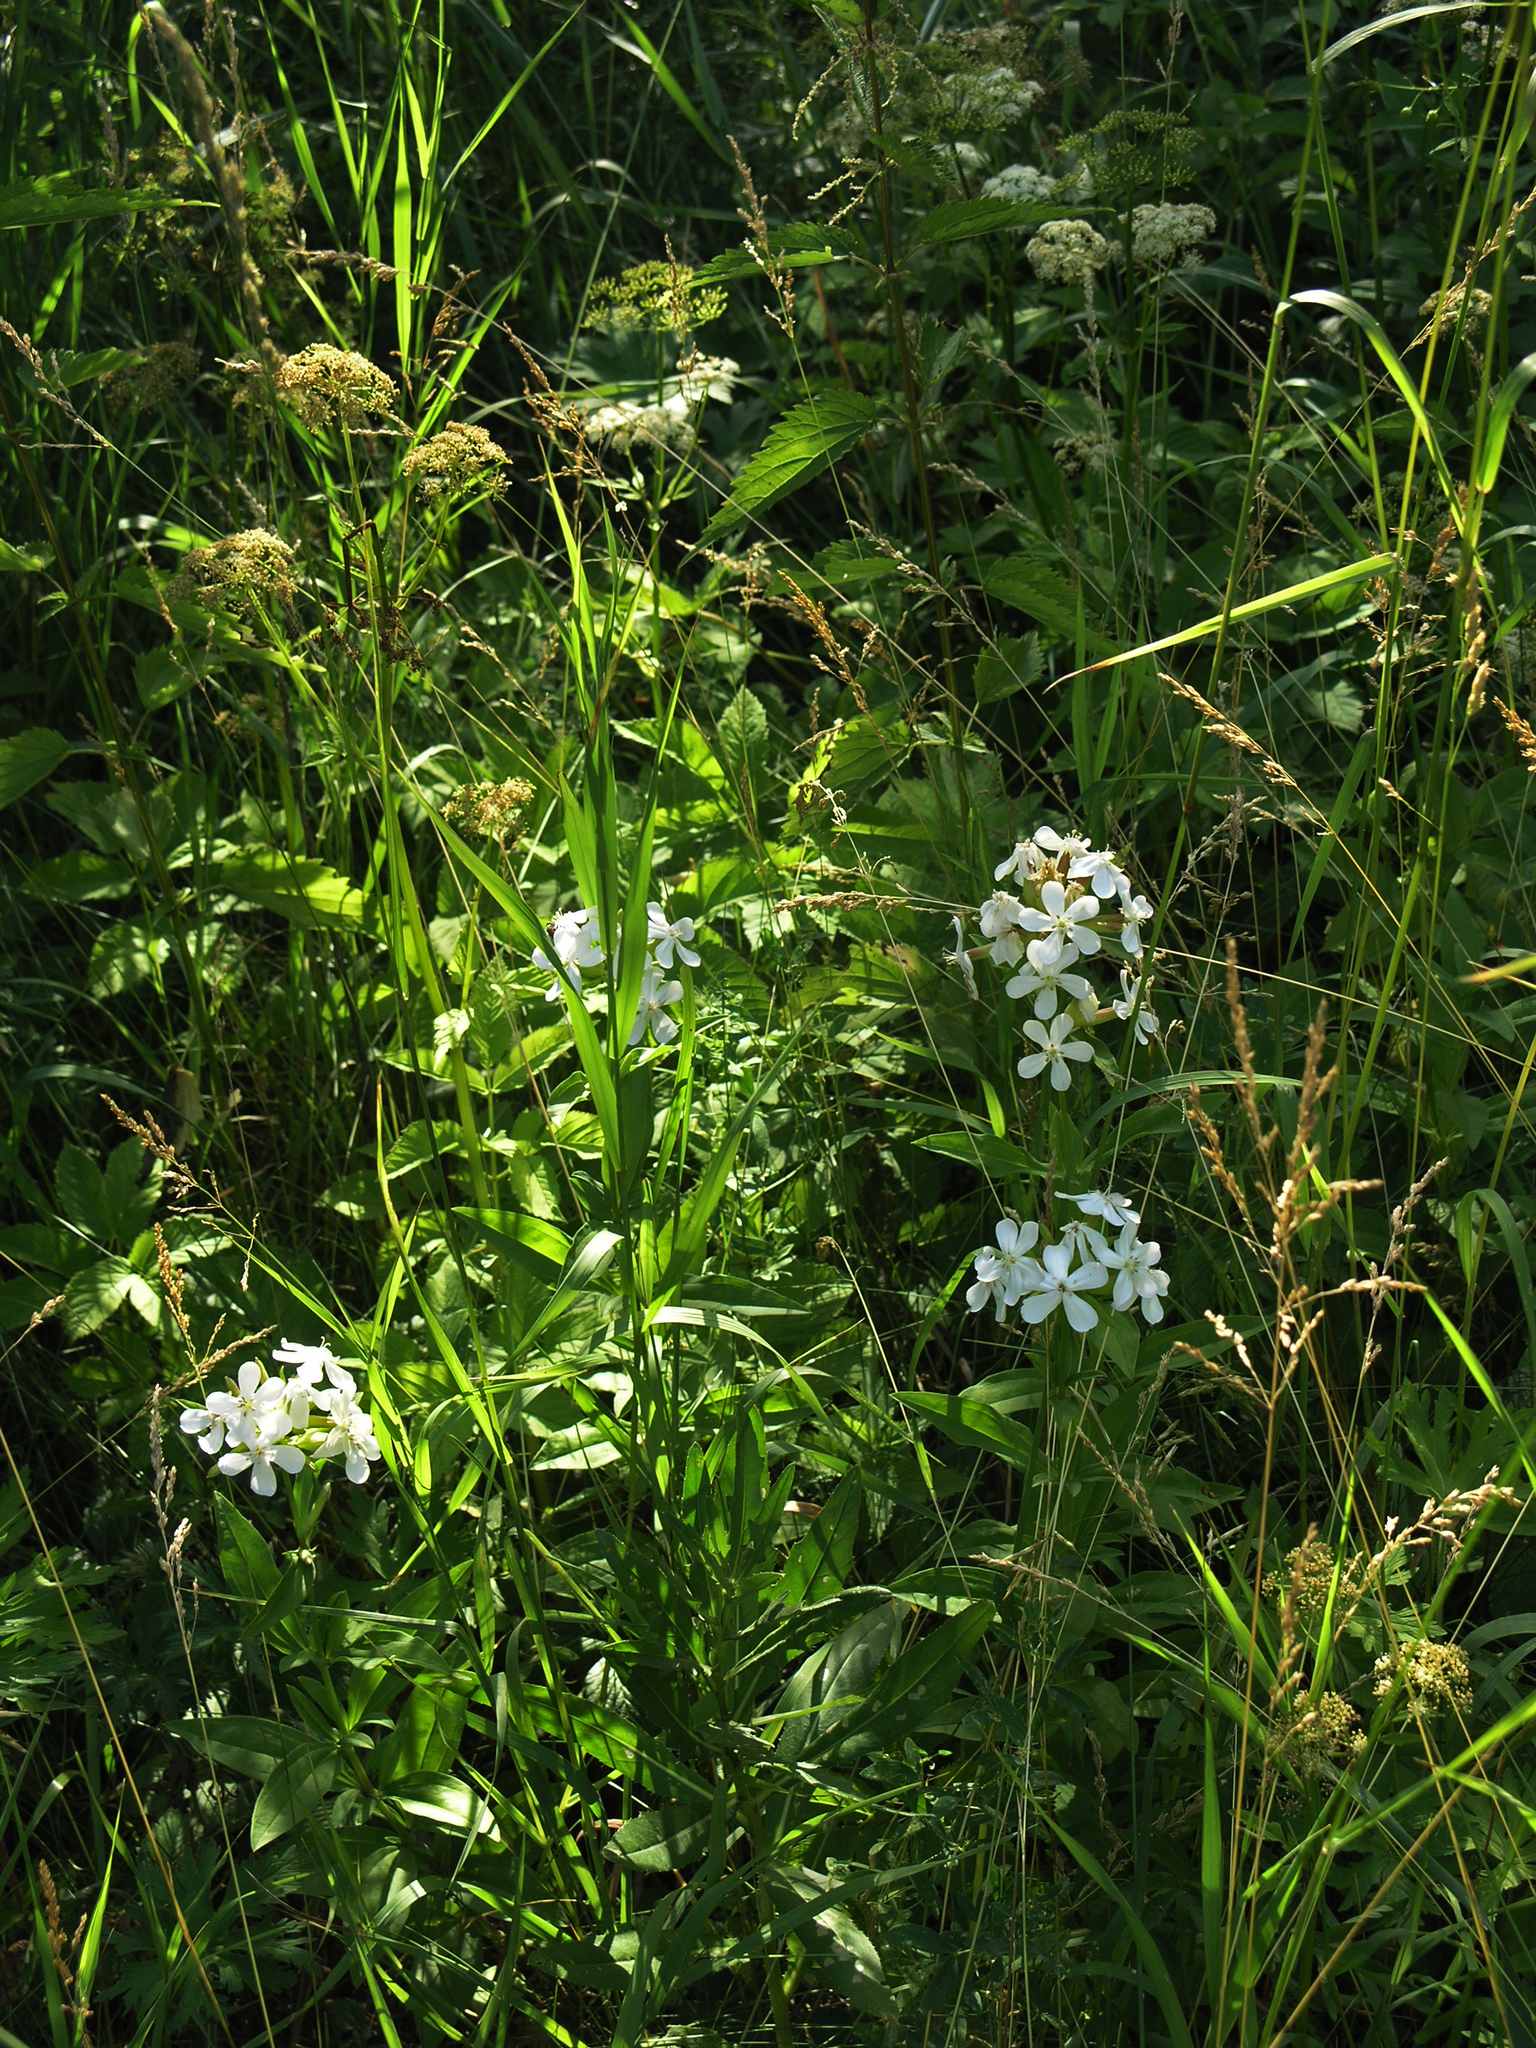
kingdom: Plantae
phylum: Tracheophyta
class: Magnoliopsida
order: Caryophyllales
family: Caryophyllaceae
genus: Saponaria
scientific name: Saponaria officinalis
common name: Soapwort
